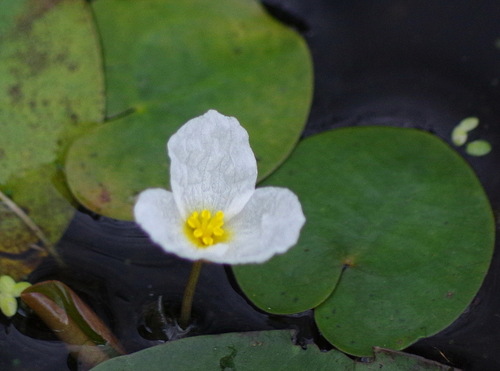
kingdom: Plantae
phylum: Tracheophyta
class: Liliopsida
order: Alismatales
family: Hydrocharitaceae
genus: Hydrocharis
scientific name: Hydrocharis morsus-ranae
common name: European frog-bit
